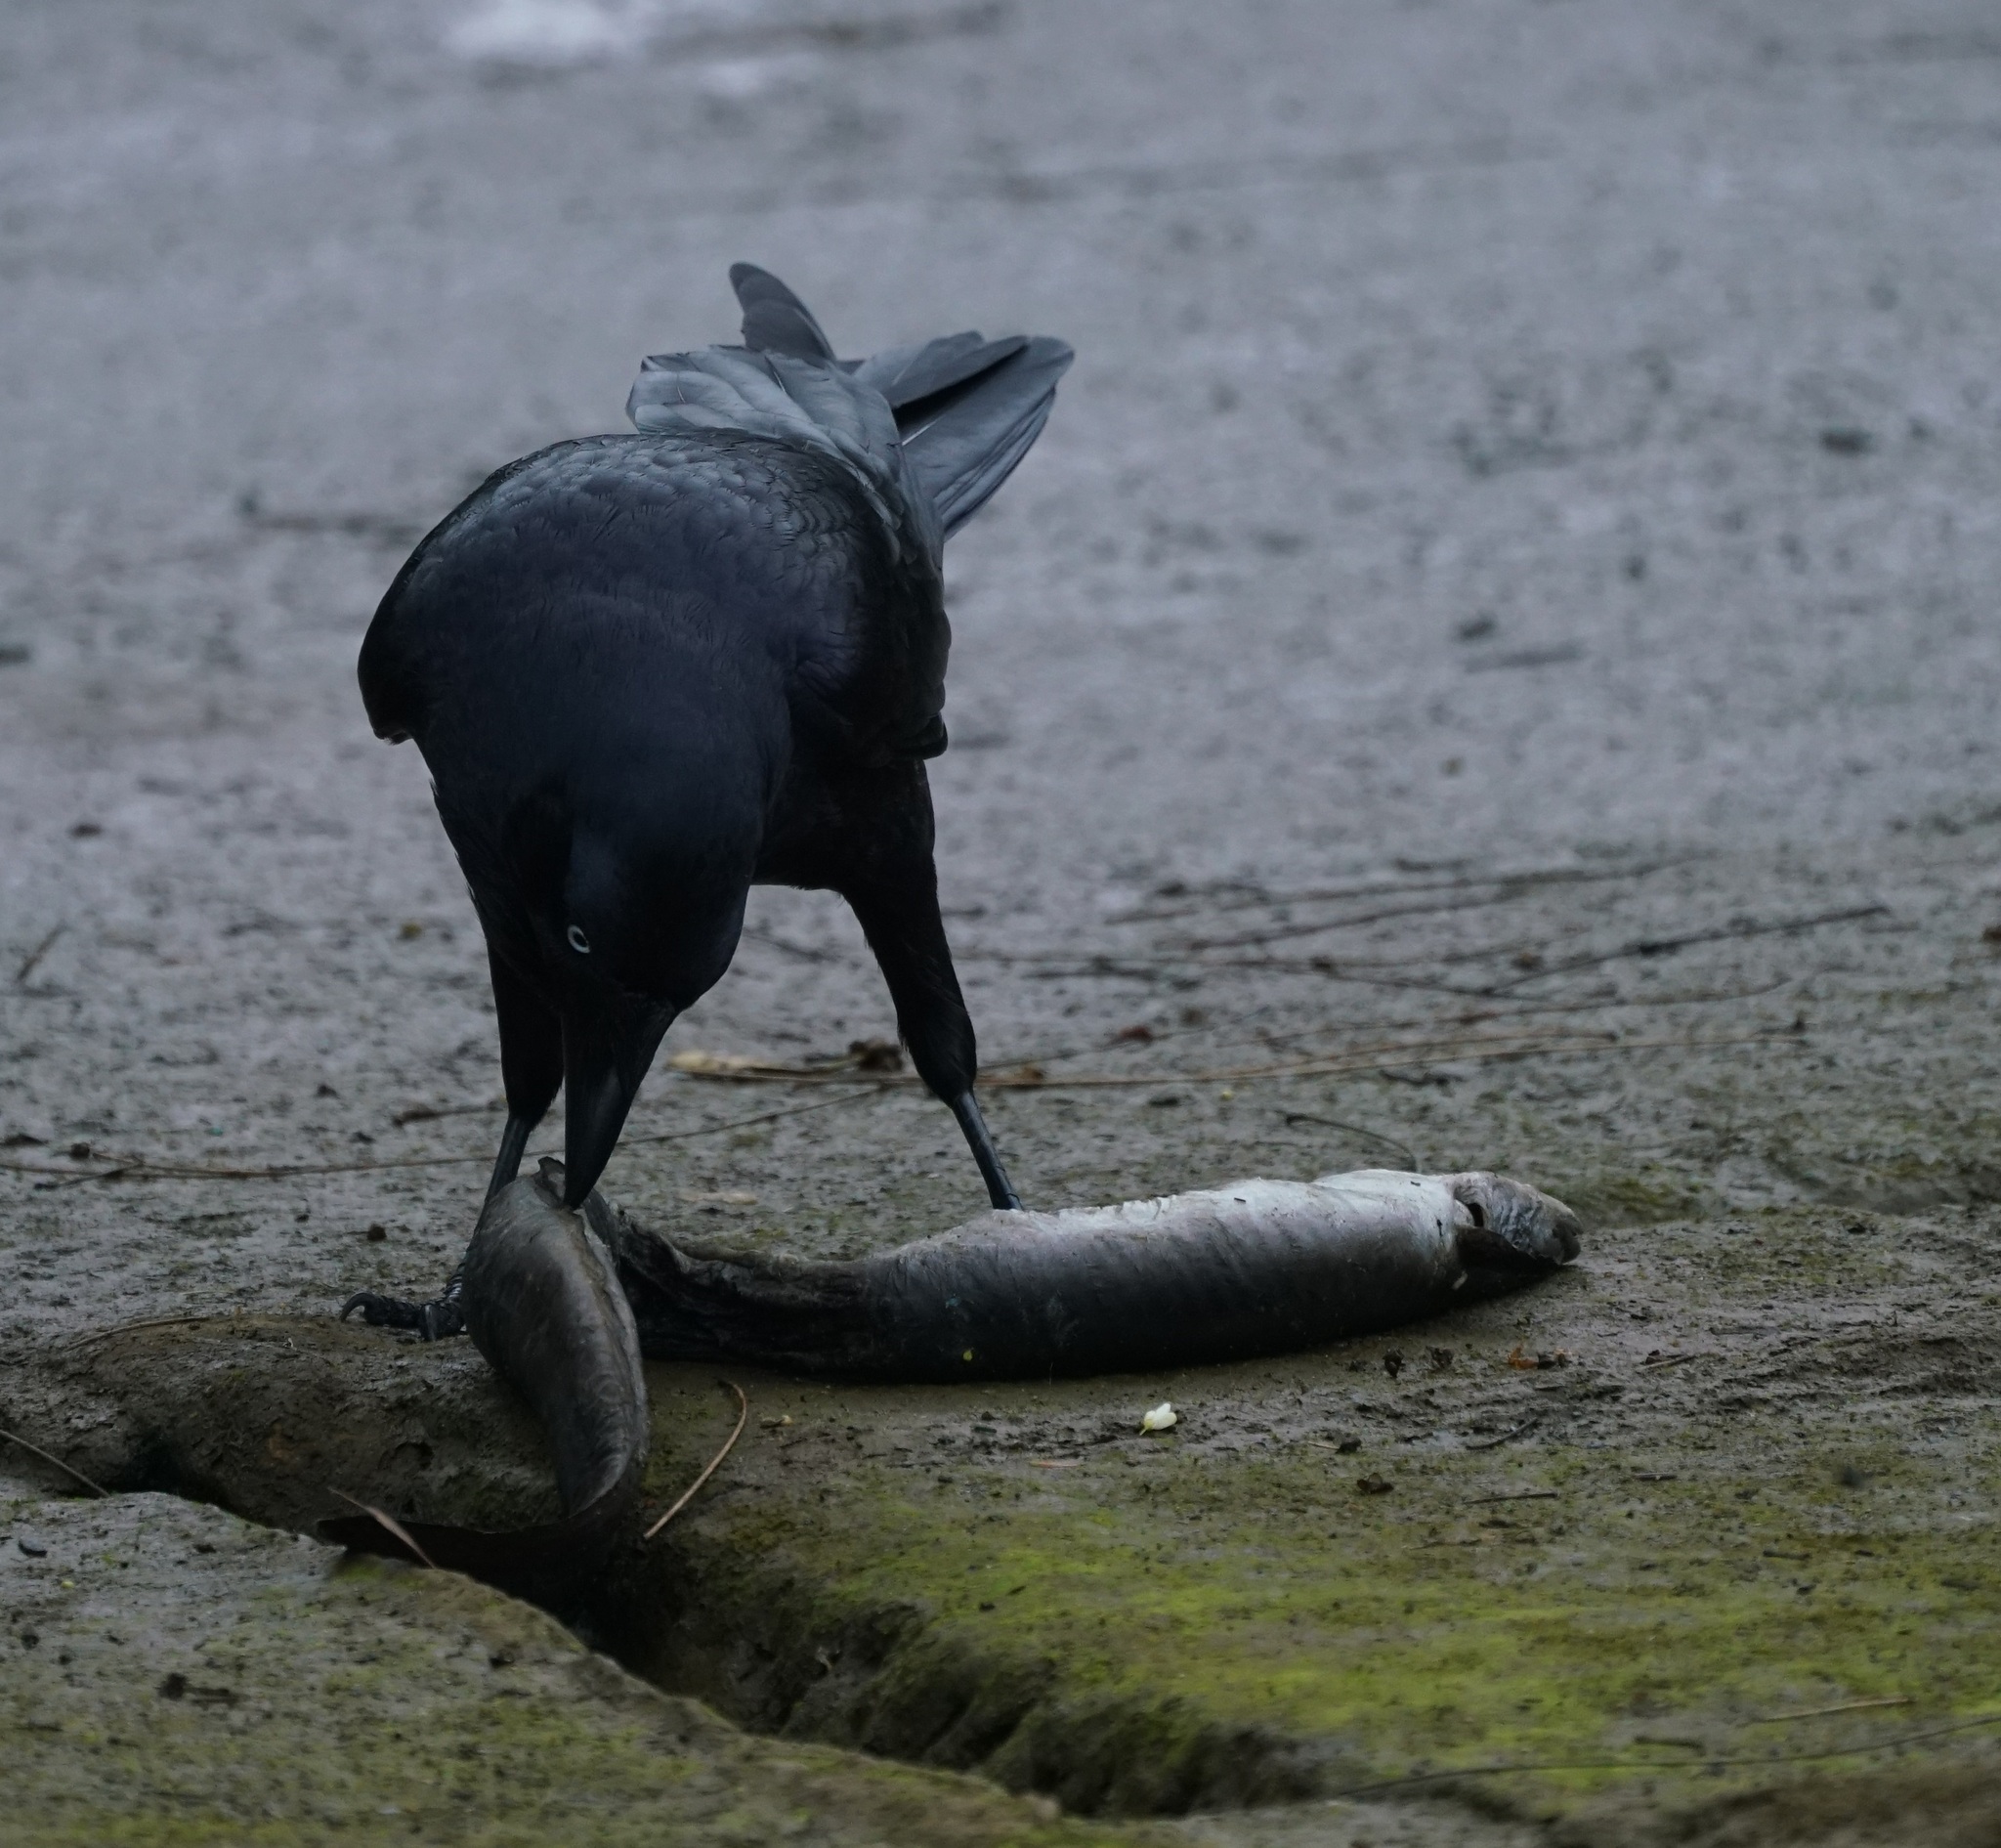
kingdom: Animalia
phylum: Chordata
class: Aves
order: Passeriformes
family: Corvidae
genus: Corvus
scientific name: Corvus coronoides
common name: Australian raven
